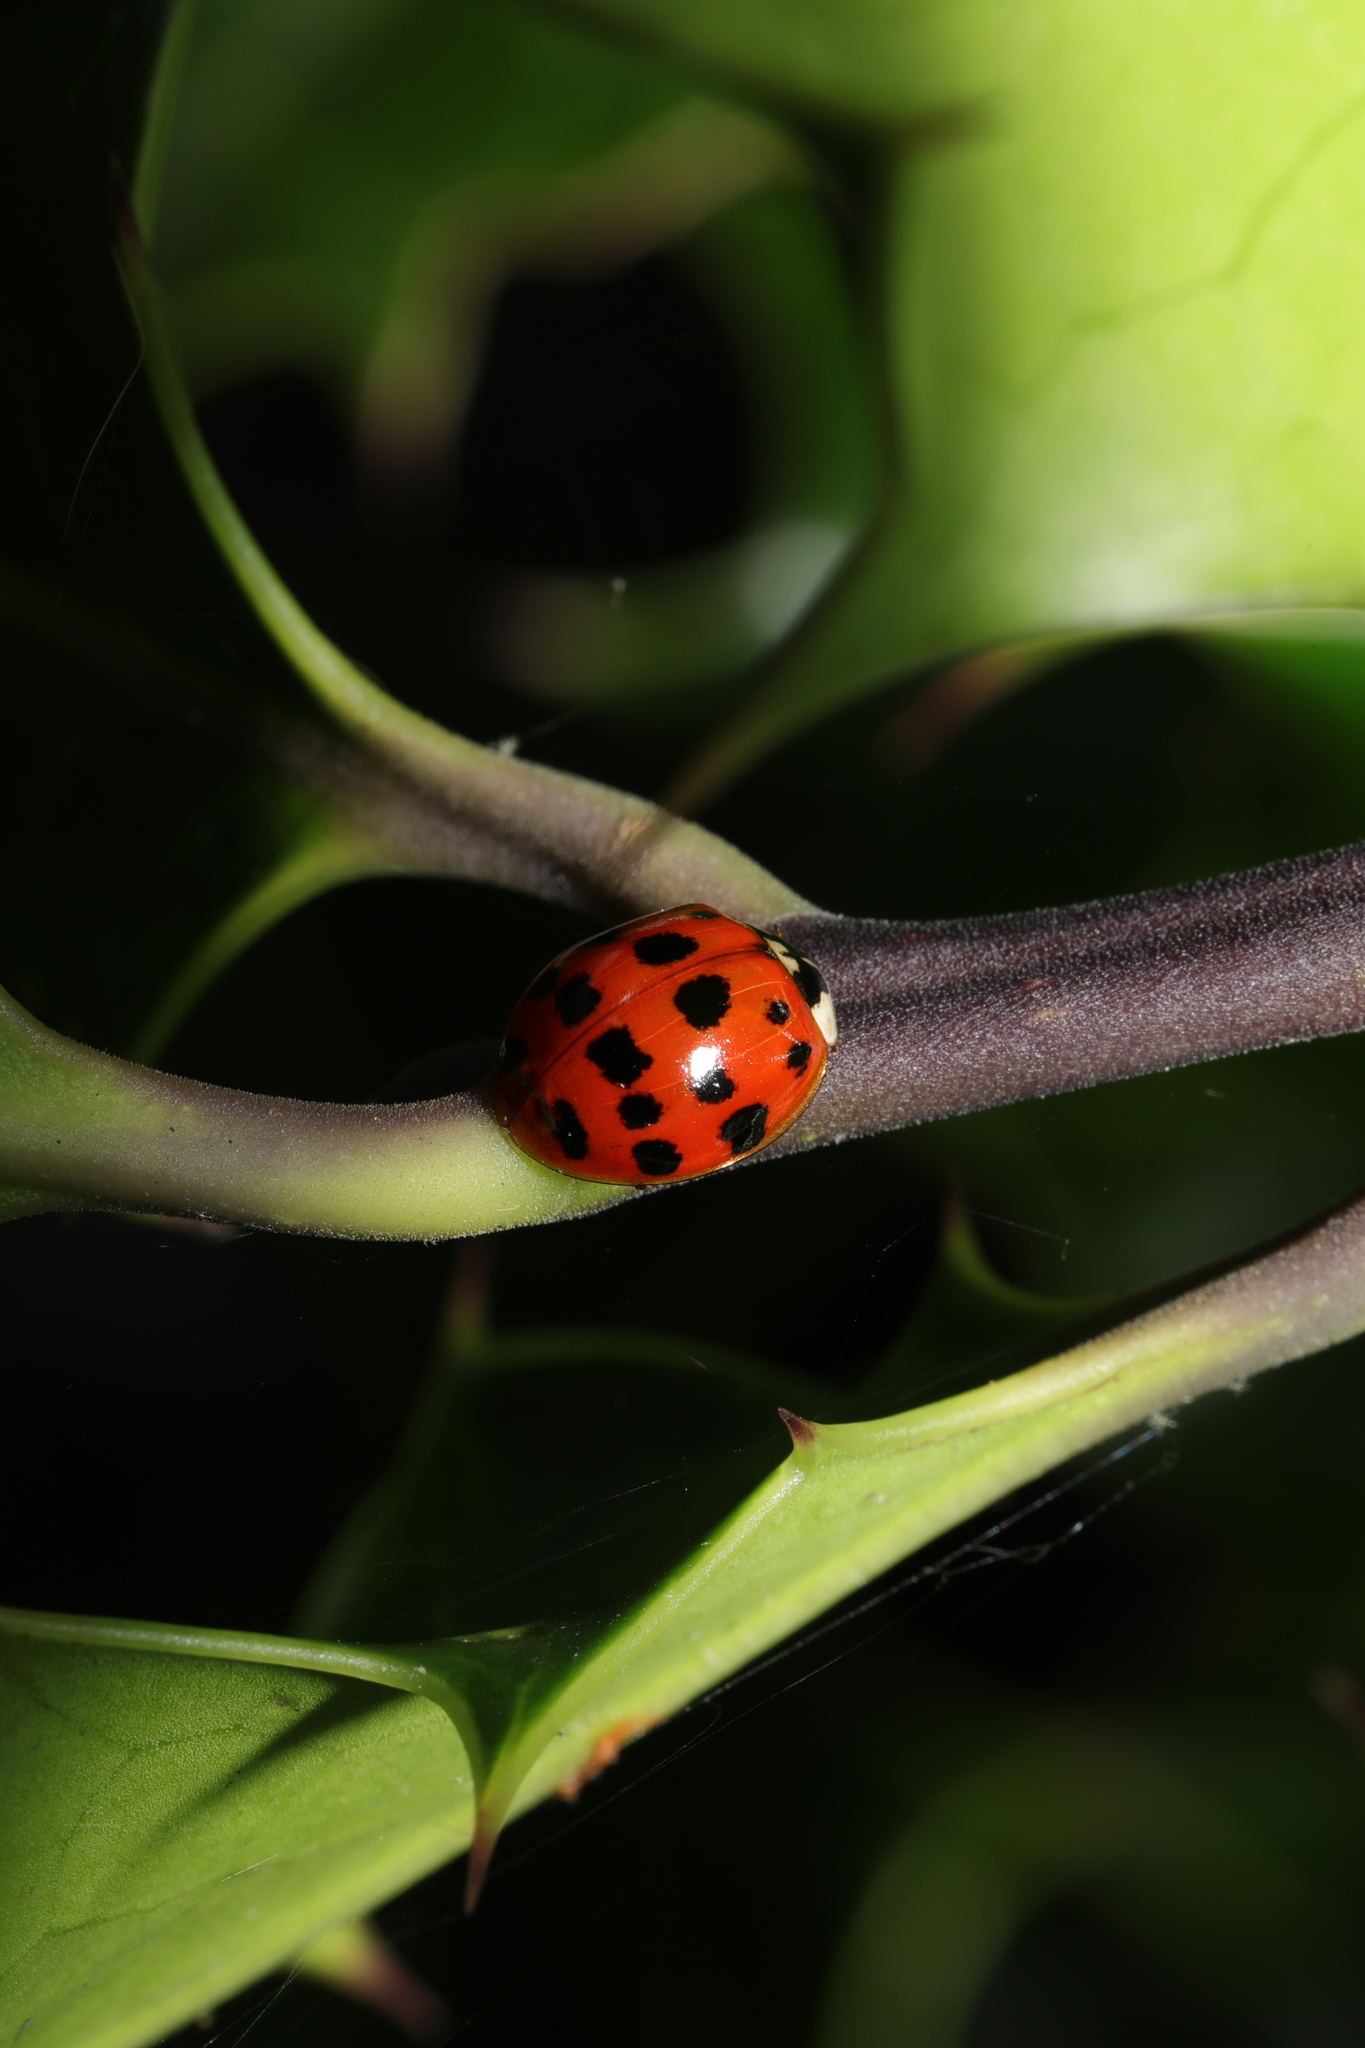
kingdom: Animalia
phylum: Arthropoda
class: Insecta
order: Coleoptera
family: Coccinellidae
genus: Harmonia
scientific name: Harmonia axyridis
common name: Harlequin ladybird
